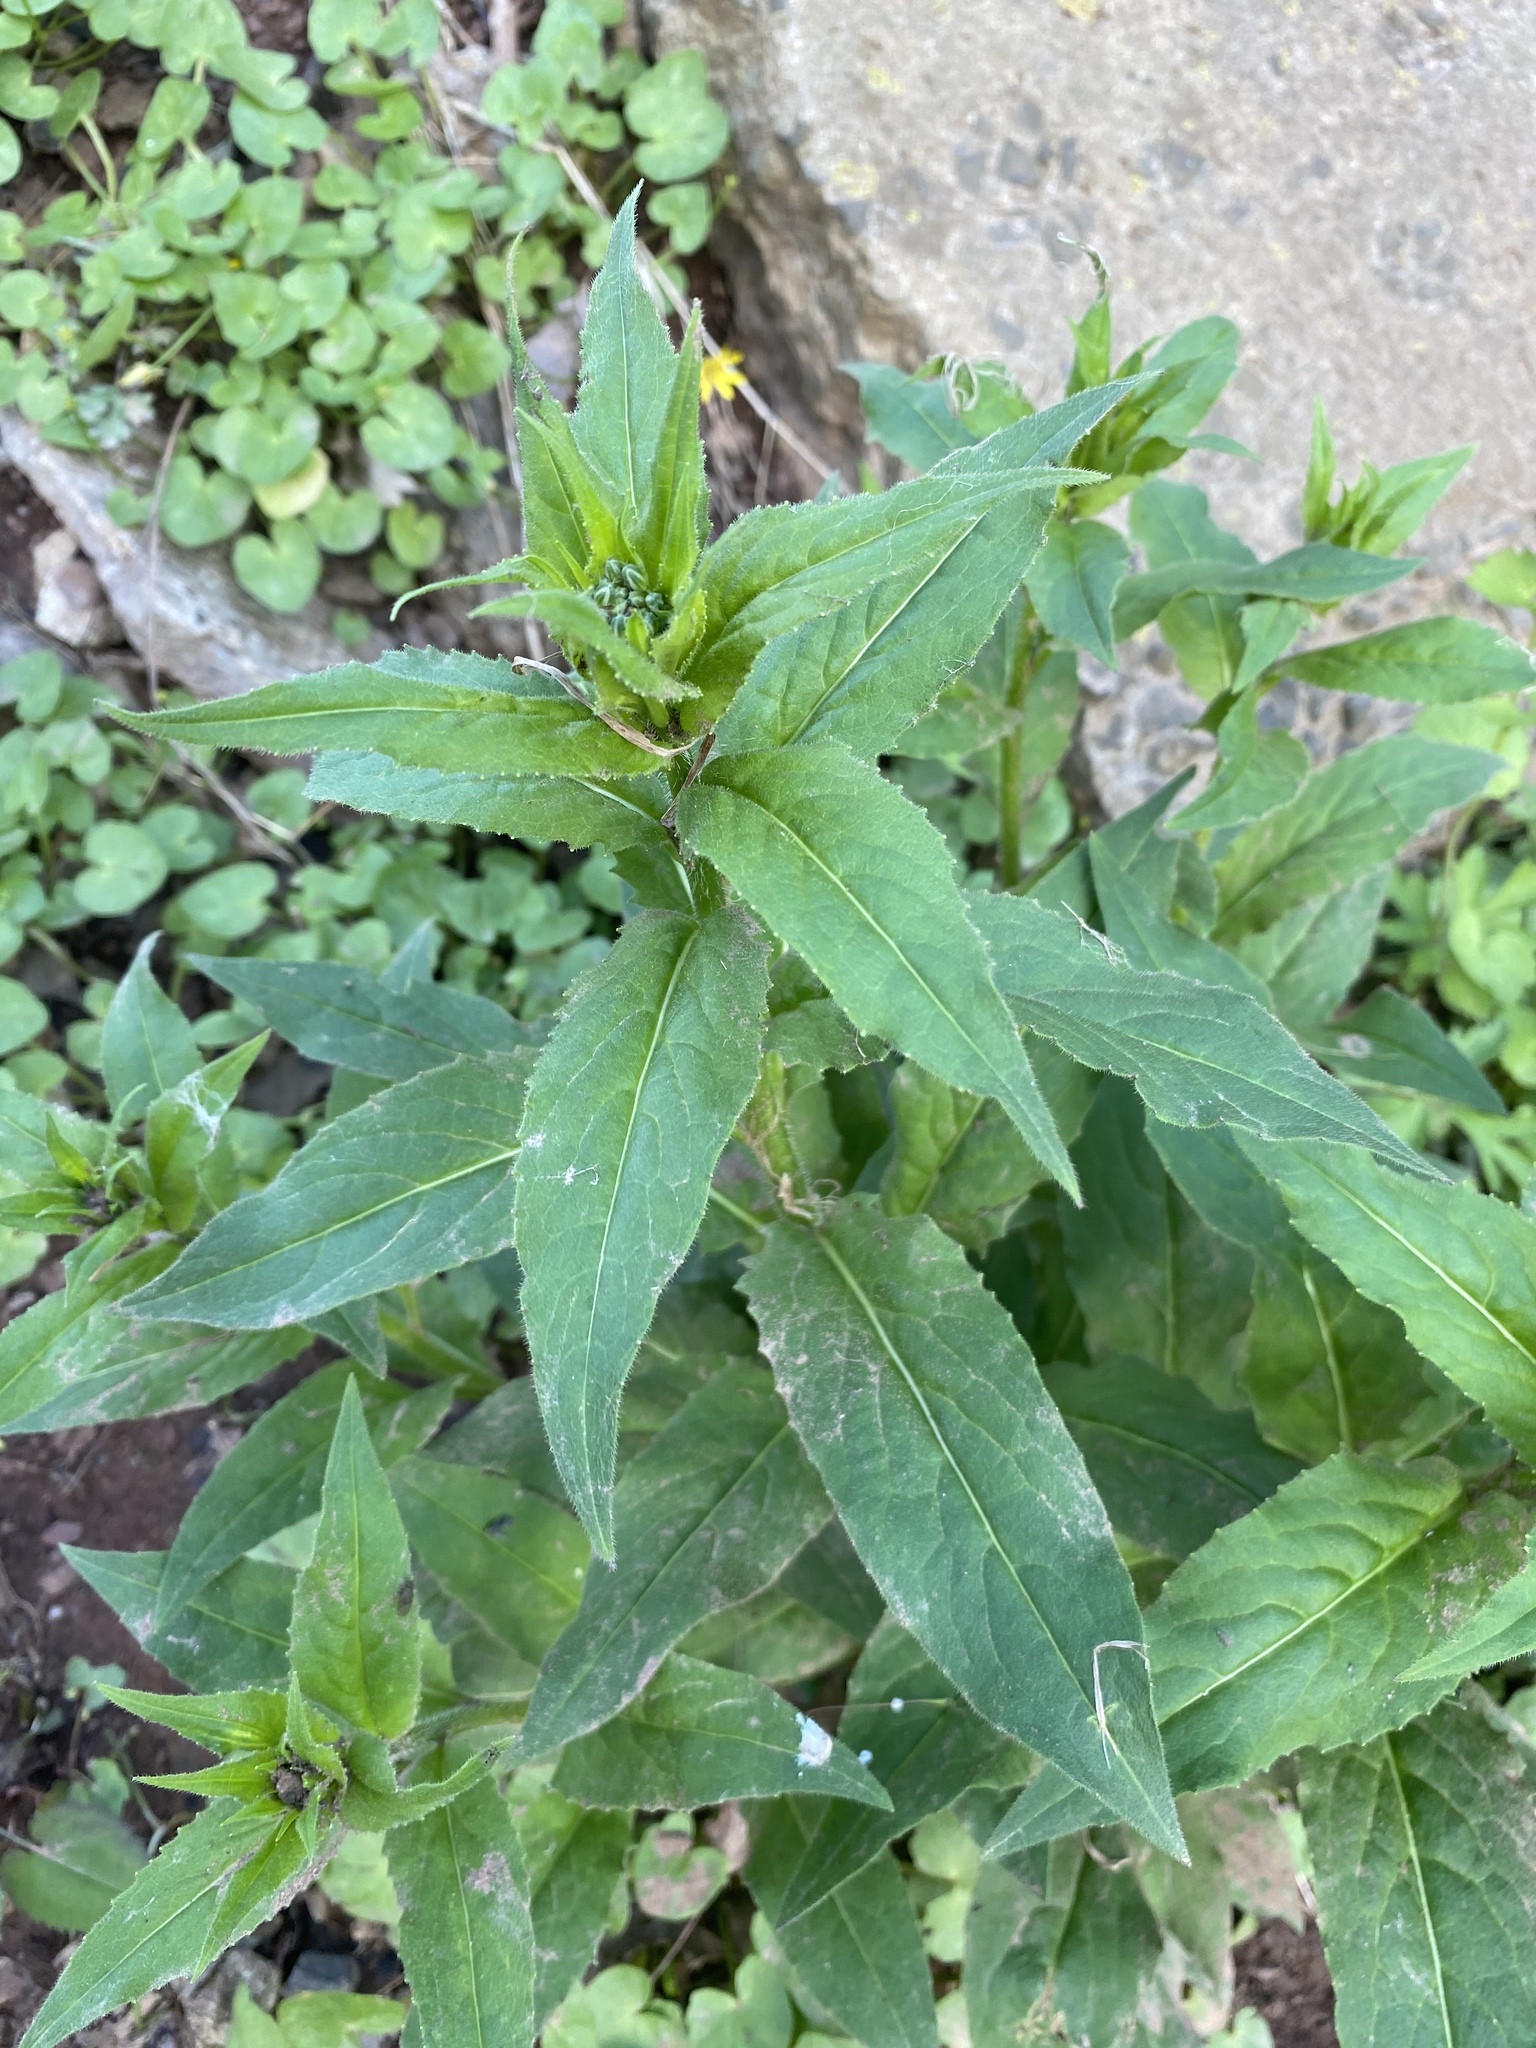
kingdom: Plantae
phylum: Tracheophyta
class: Magnoliopsida
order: Brassicales
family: Brassicaceae
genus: Hesperis
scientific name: Hesperis matronalis
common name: Dame's-violet
